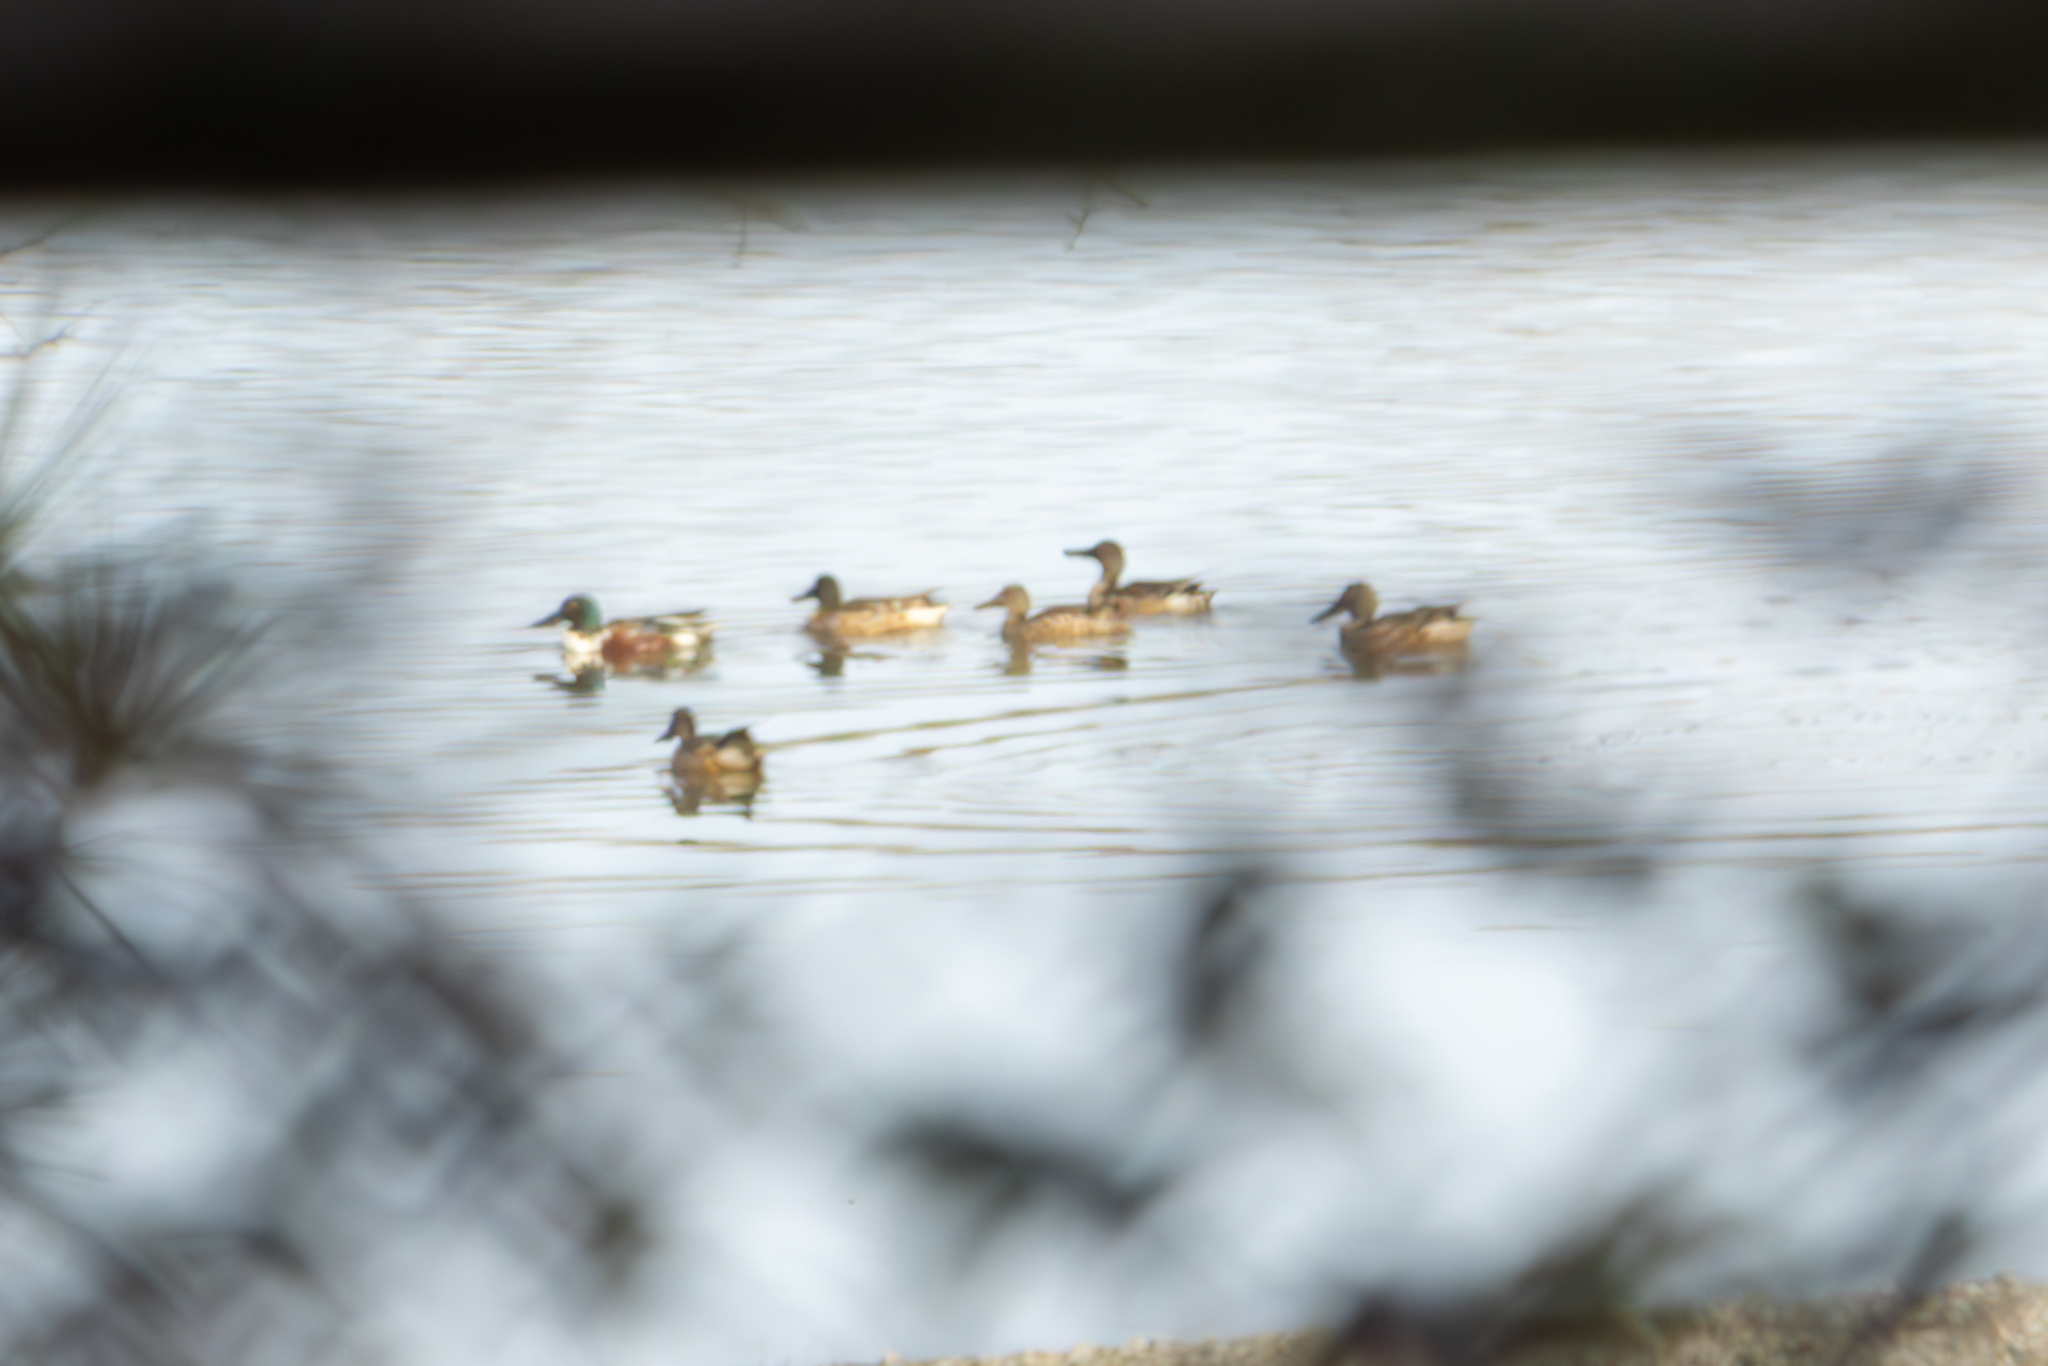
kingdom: Animalia
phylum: Chordata
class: Aves
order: Anseriformes
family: Anatidae
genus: Spatula
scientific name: Spatula clypeata
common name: Northern shoveler
